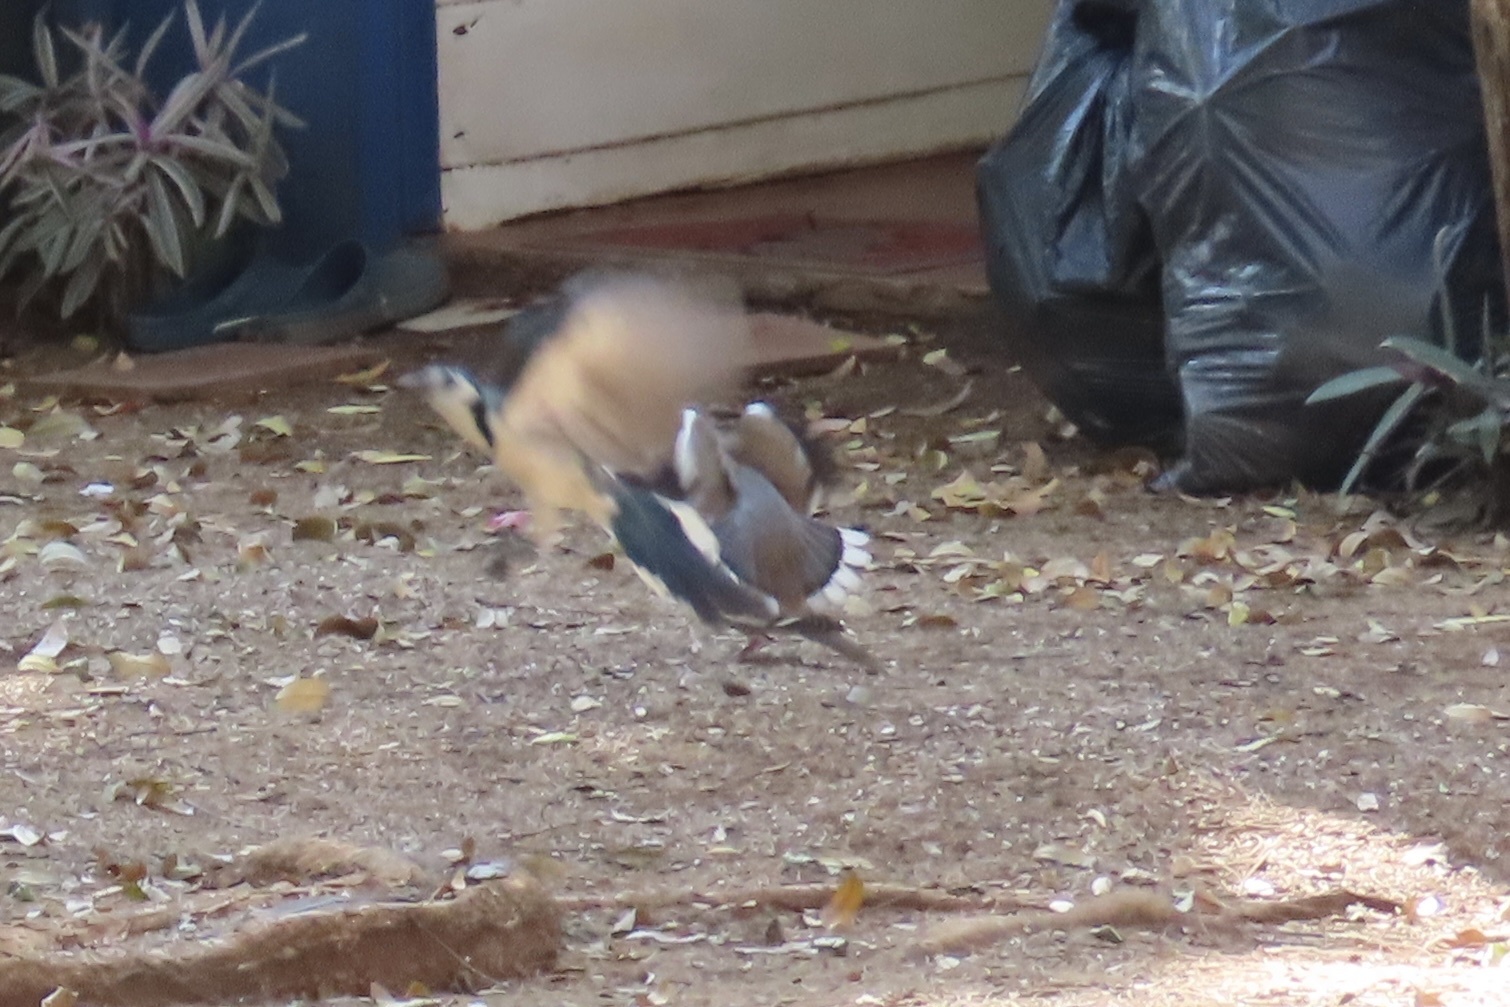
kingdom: Animalia
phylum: Chordata
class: Aves
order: Passeriformes
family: Corvidae
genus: Calocitta
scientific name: Calocitta formosa
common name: White-throated magpie-jay
